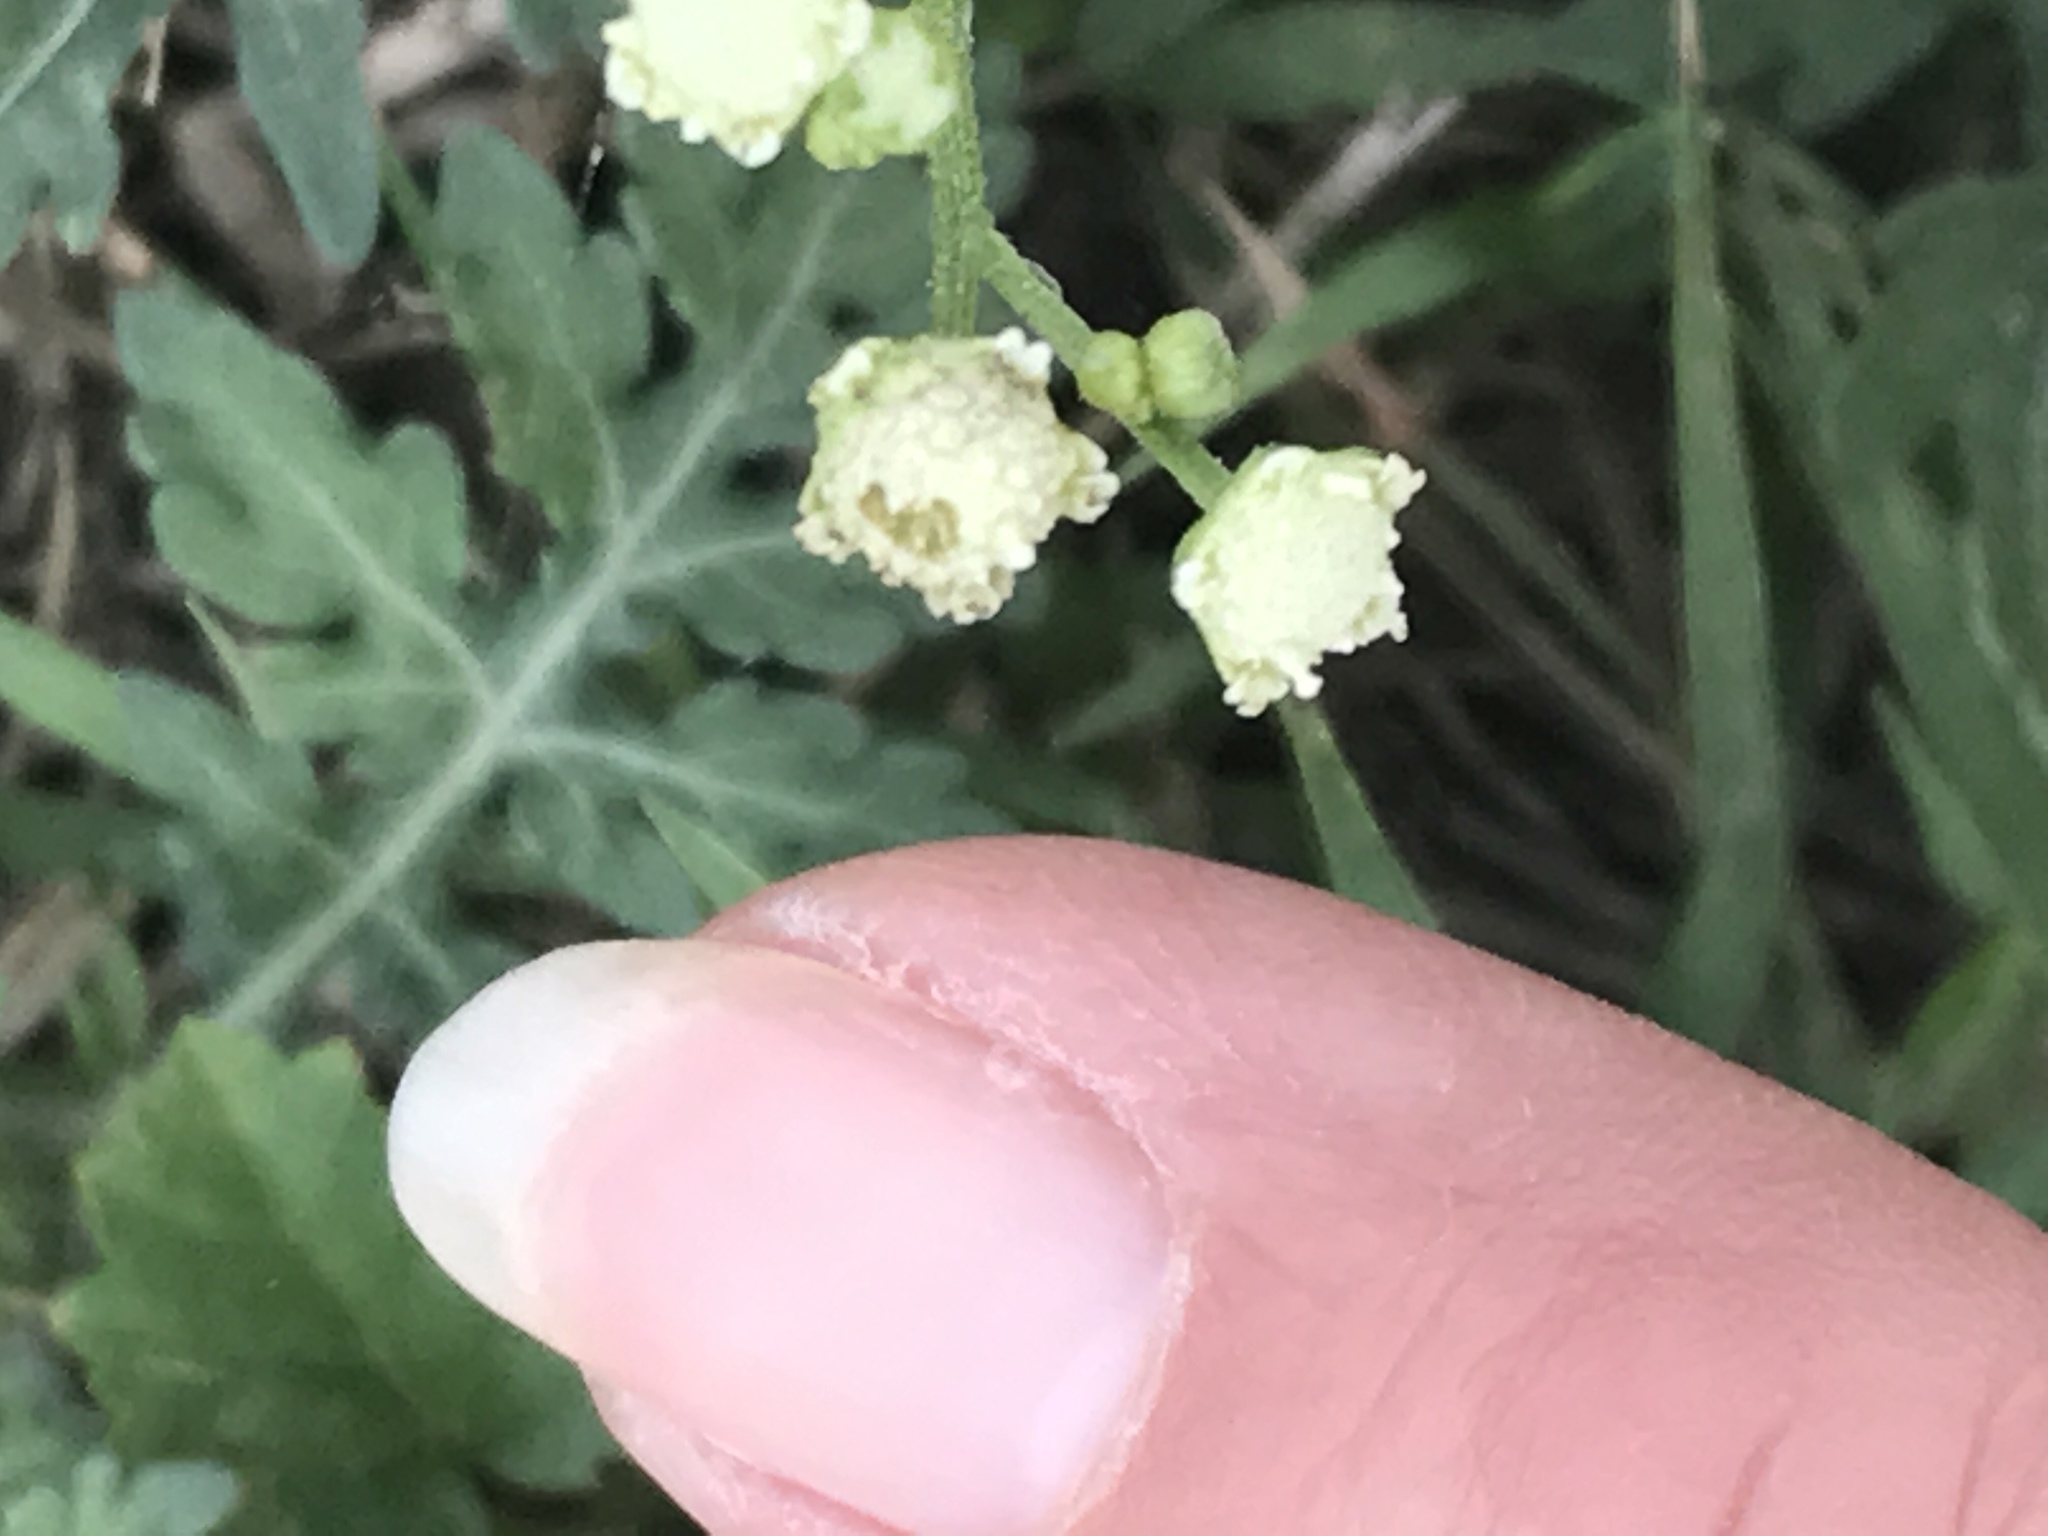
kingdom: Plantae
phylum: Tracheophyta
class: Magnoliopsida
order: Asterales
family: Asteraceae
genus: Parthenium
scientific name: Parthenium hysterophorus
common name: Santa maria feverfew
